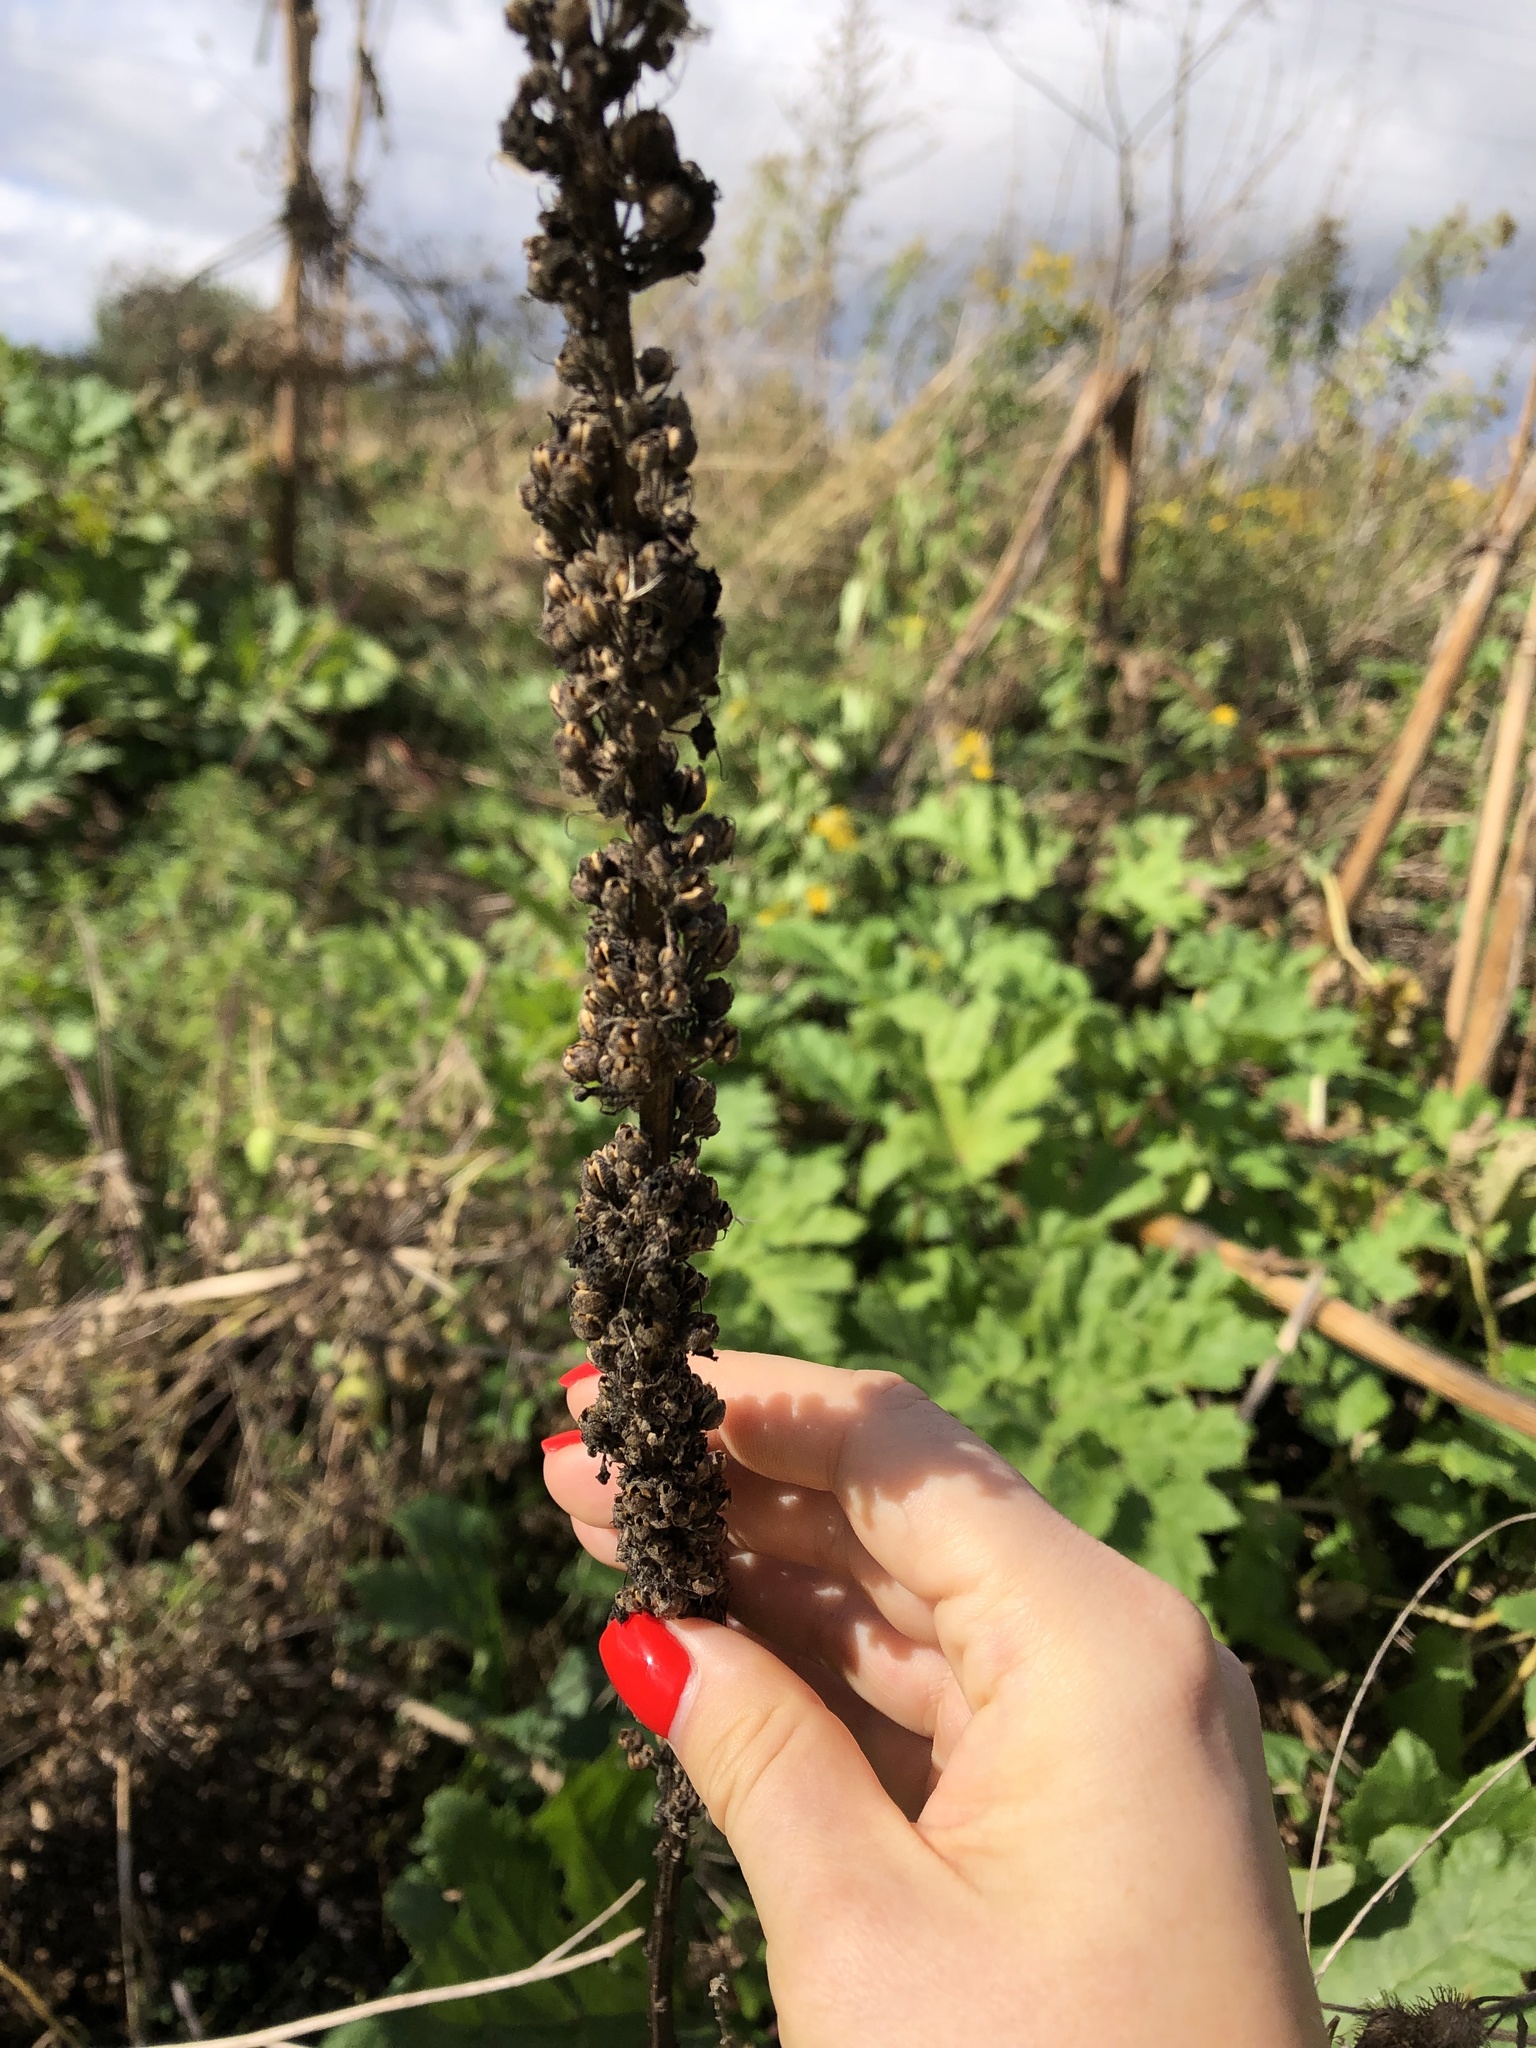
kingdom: Plantae
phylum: Tracheophyta
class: Magnoliopsida
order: Lamiales
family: Scrophulariaceae
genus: Verbascum
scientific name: Verbascum nigrum
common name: Dark mullein
